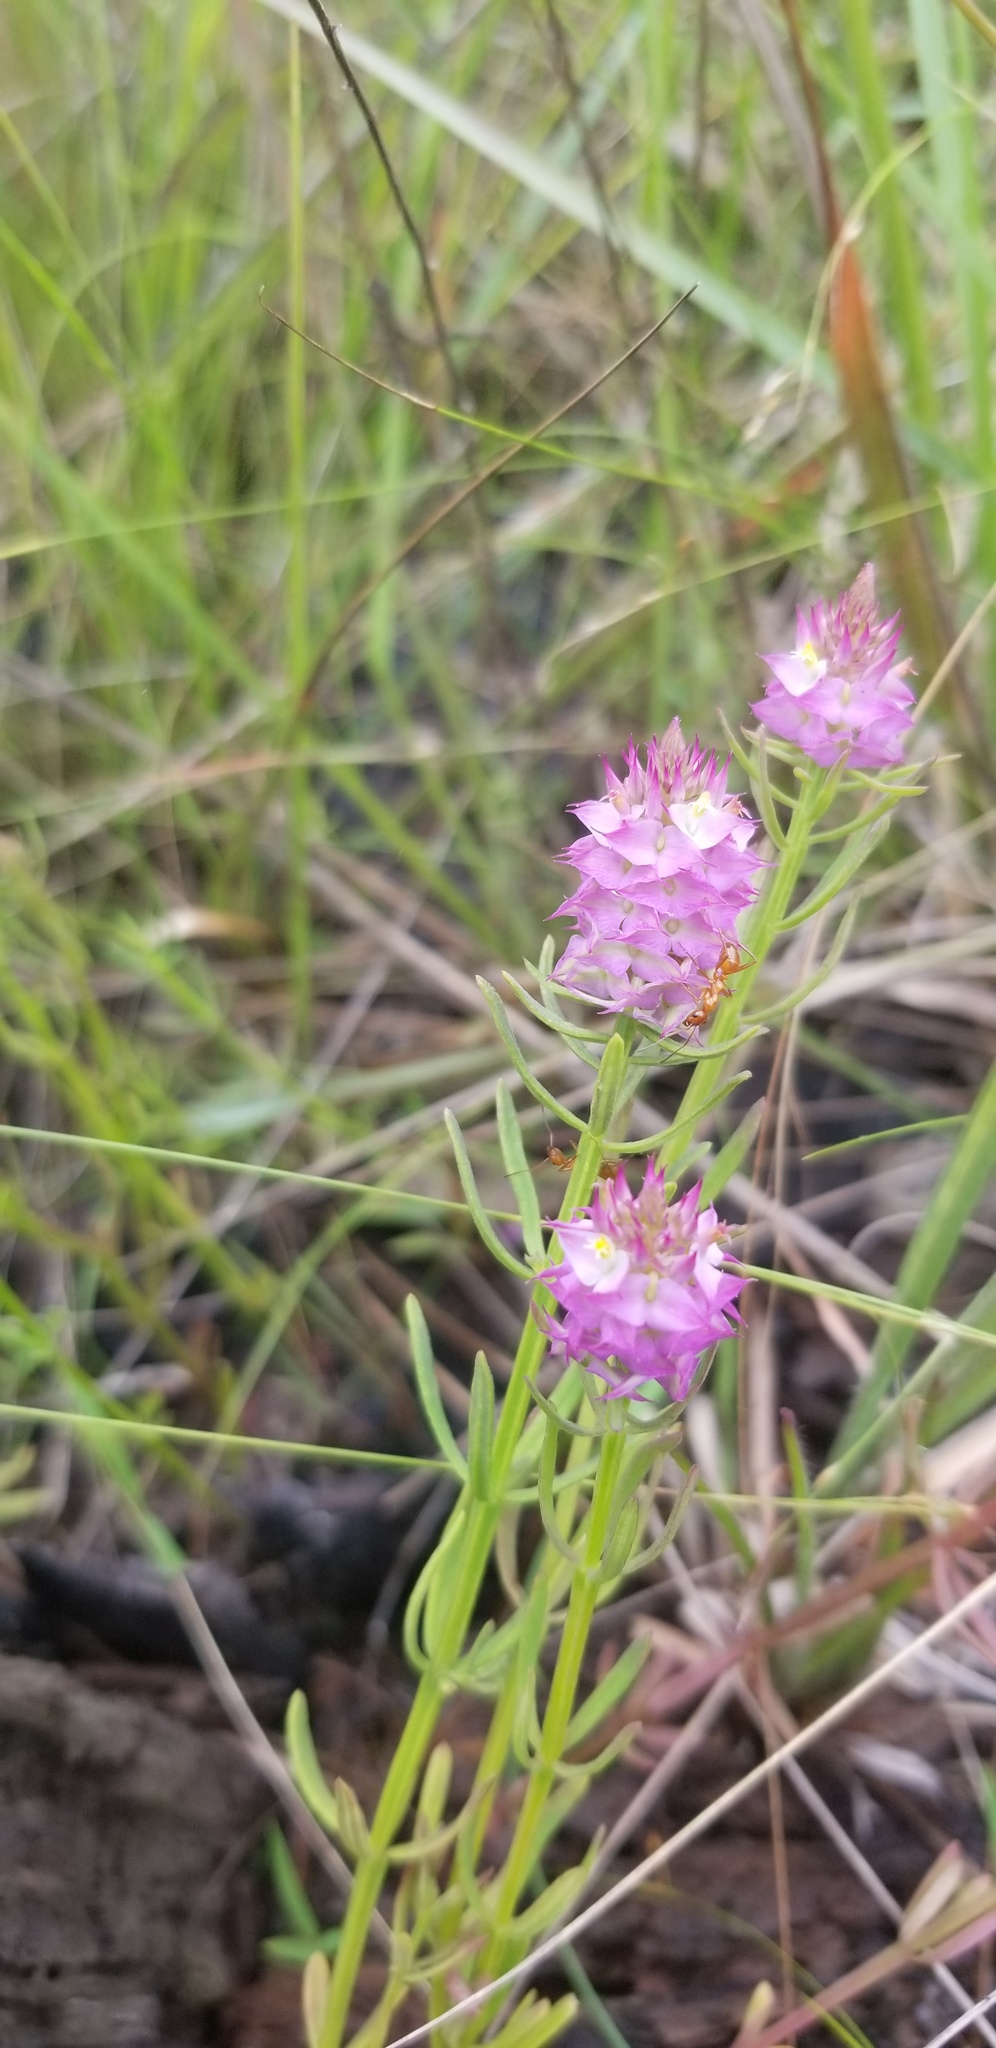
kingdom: Plantae
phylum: Tracheophyta
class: Magnoliopsida
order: Fabales
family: Polygalaceae
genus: Polygala
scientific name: Polygala cruciata
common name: Drumheads
